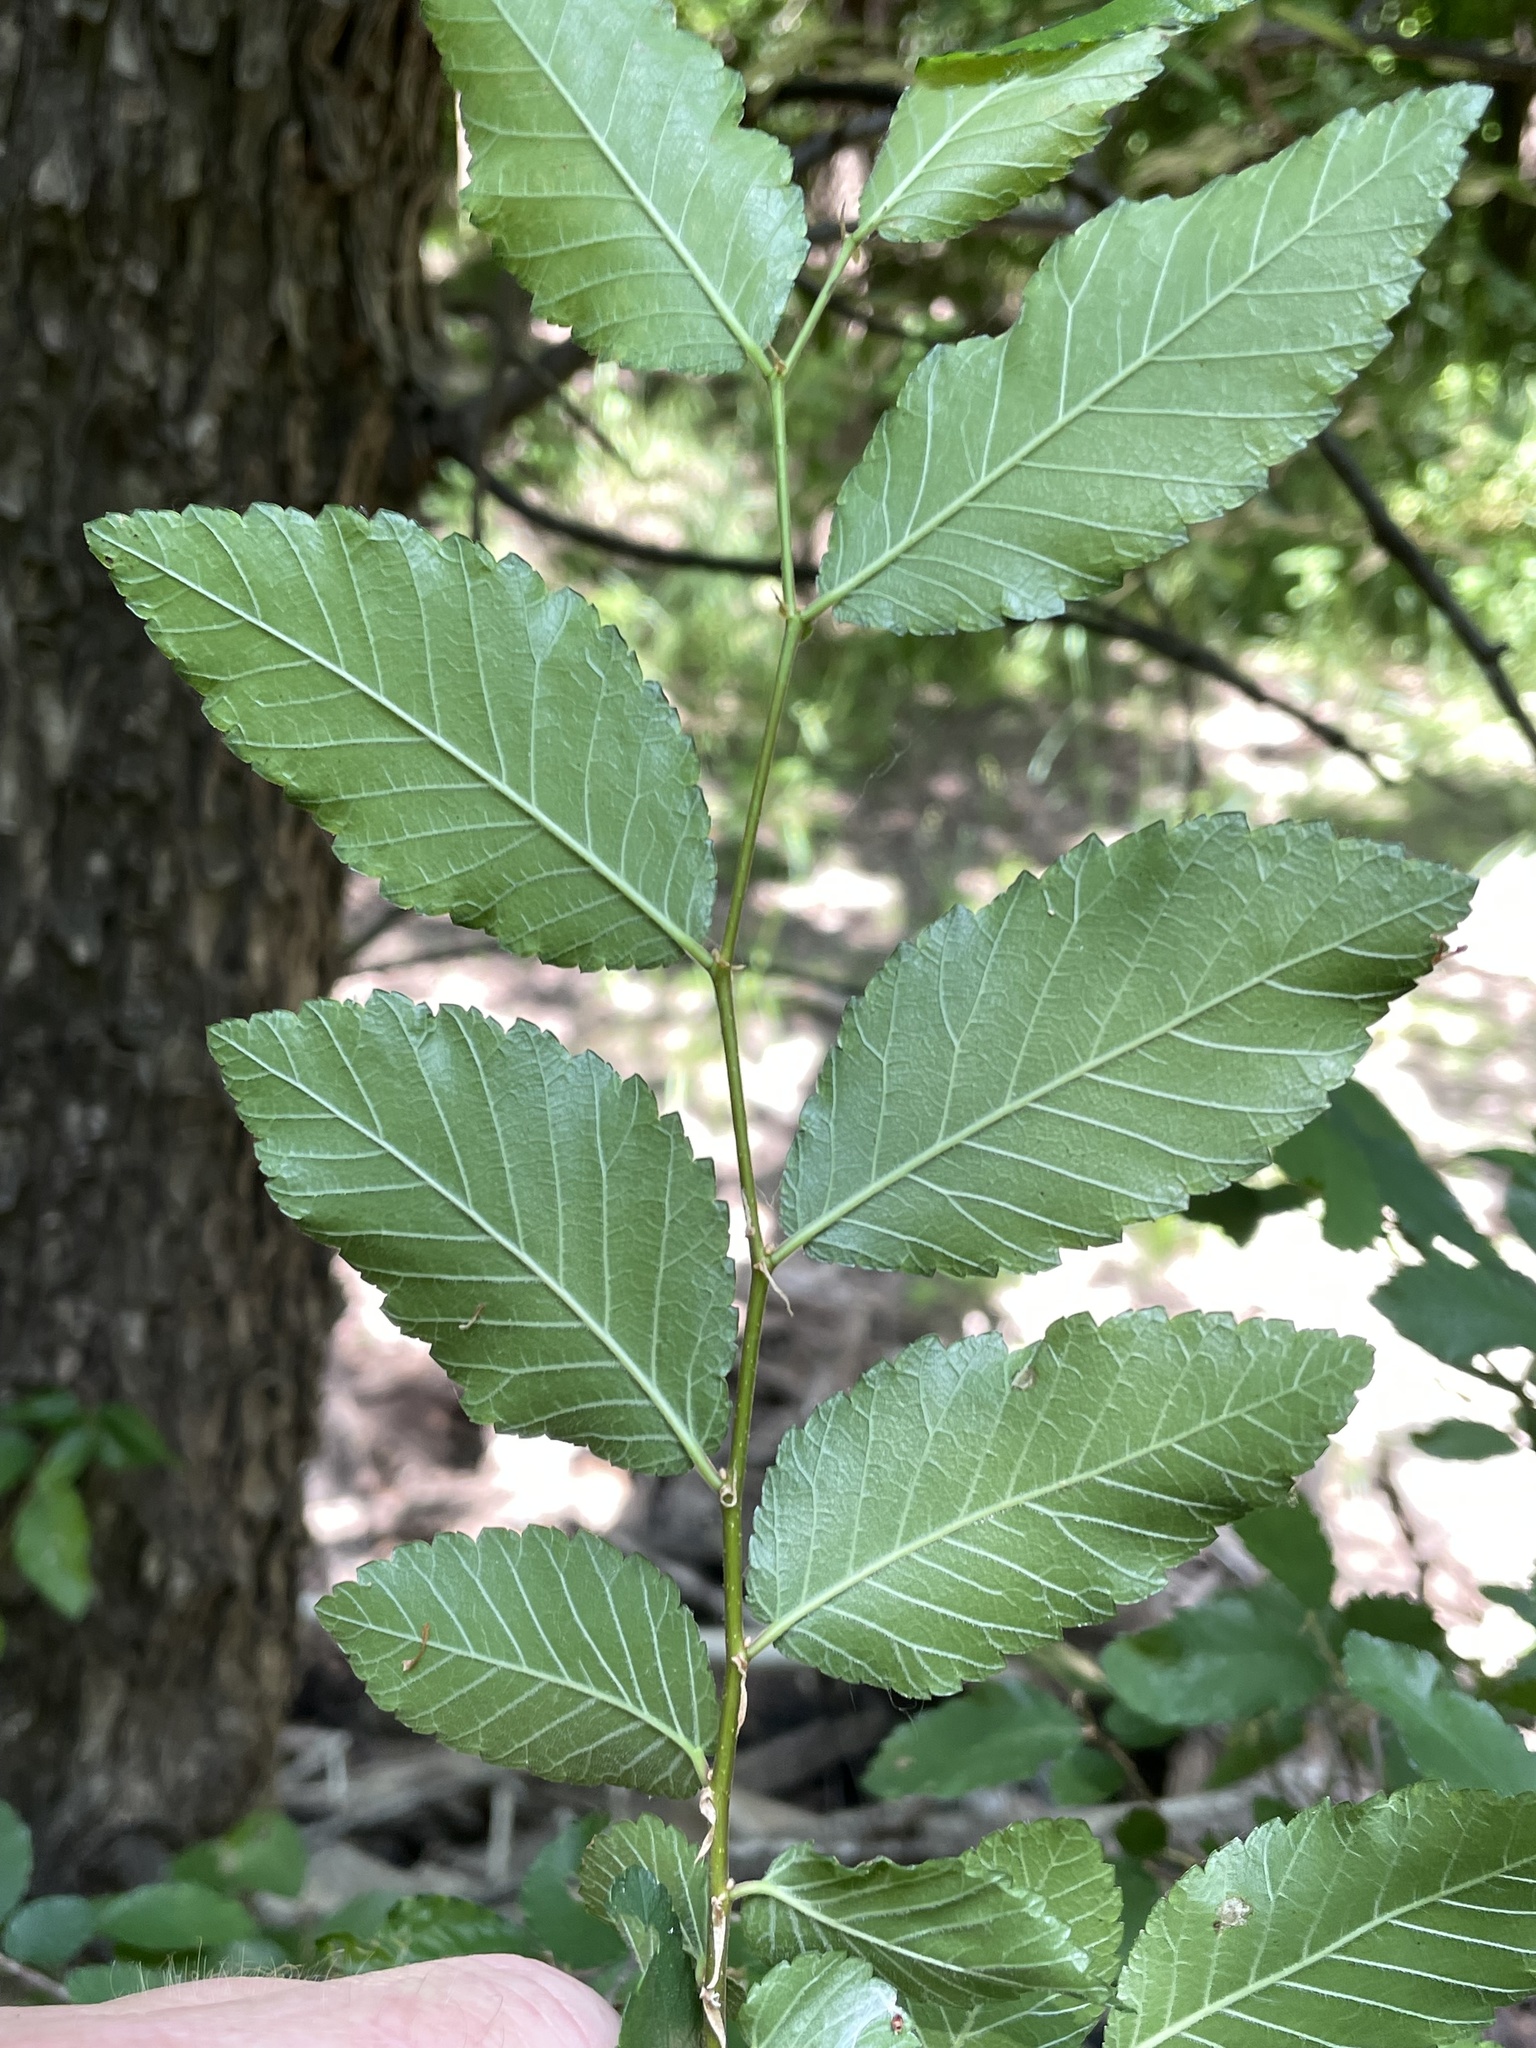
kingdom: Plantae
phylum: Tracheophyta
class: Magnoliopsida
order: Rosales
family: Ulmaceae
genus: Ulmus
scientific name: Ulmus crassifolia
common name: Basket elm
